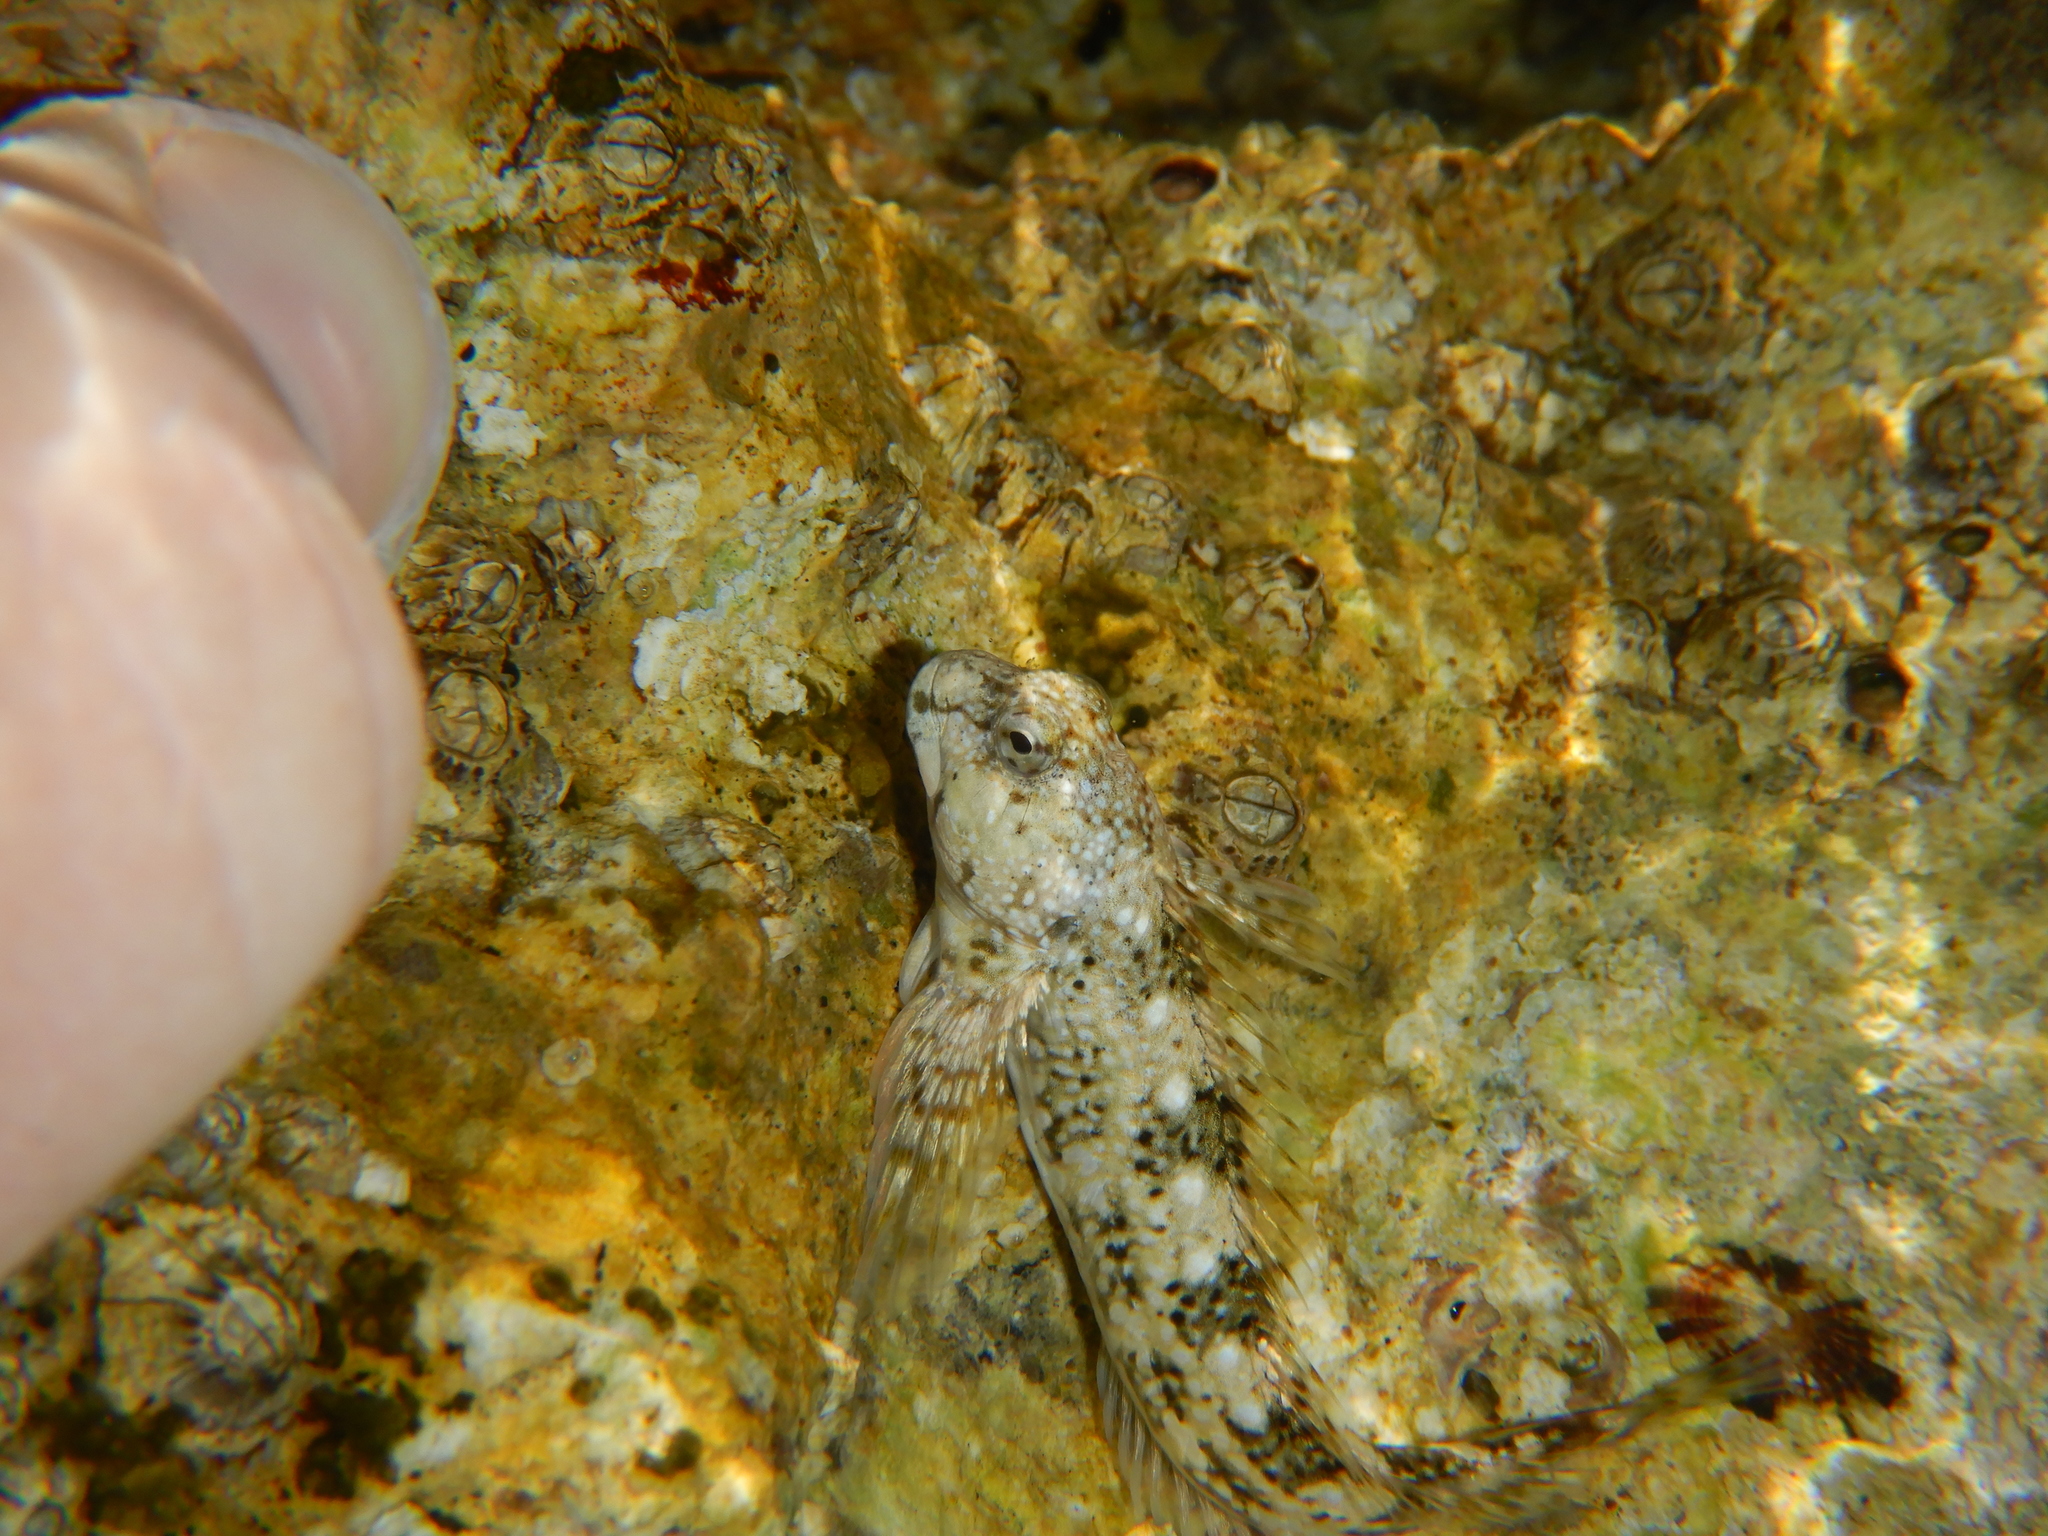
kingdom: Animalia
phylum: Chordata
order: Perciformes
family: Blenniidae
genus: Coryphoblennius
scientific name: Coryphoblennius galerita
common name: Montagu's blenny
